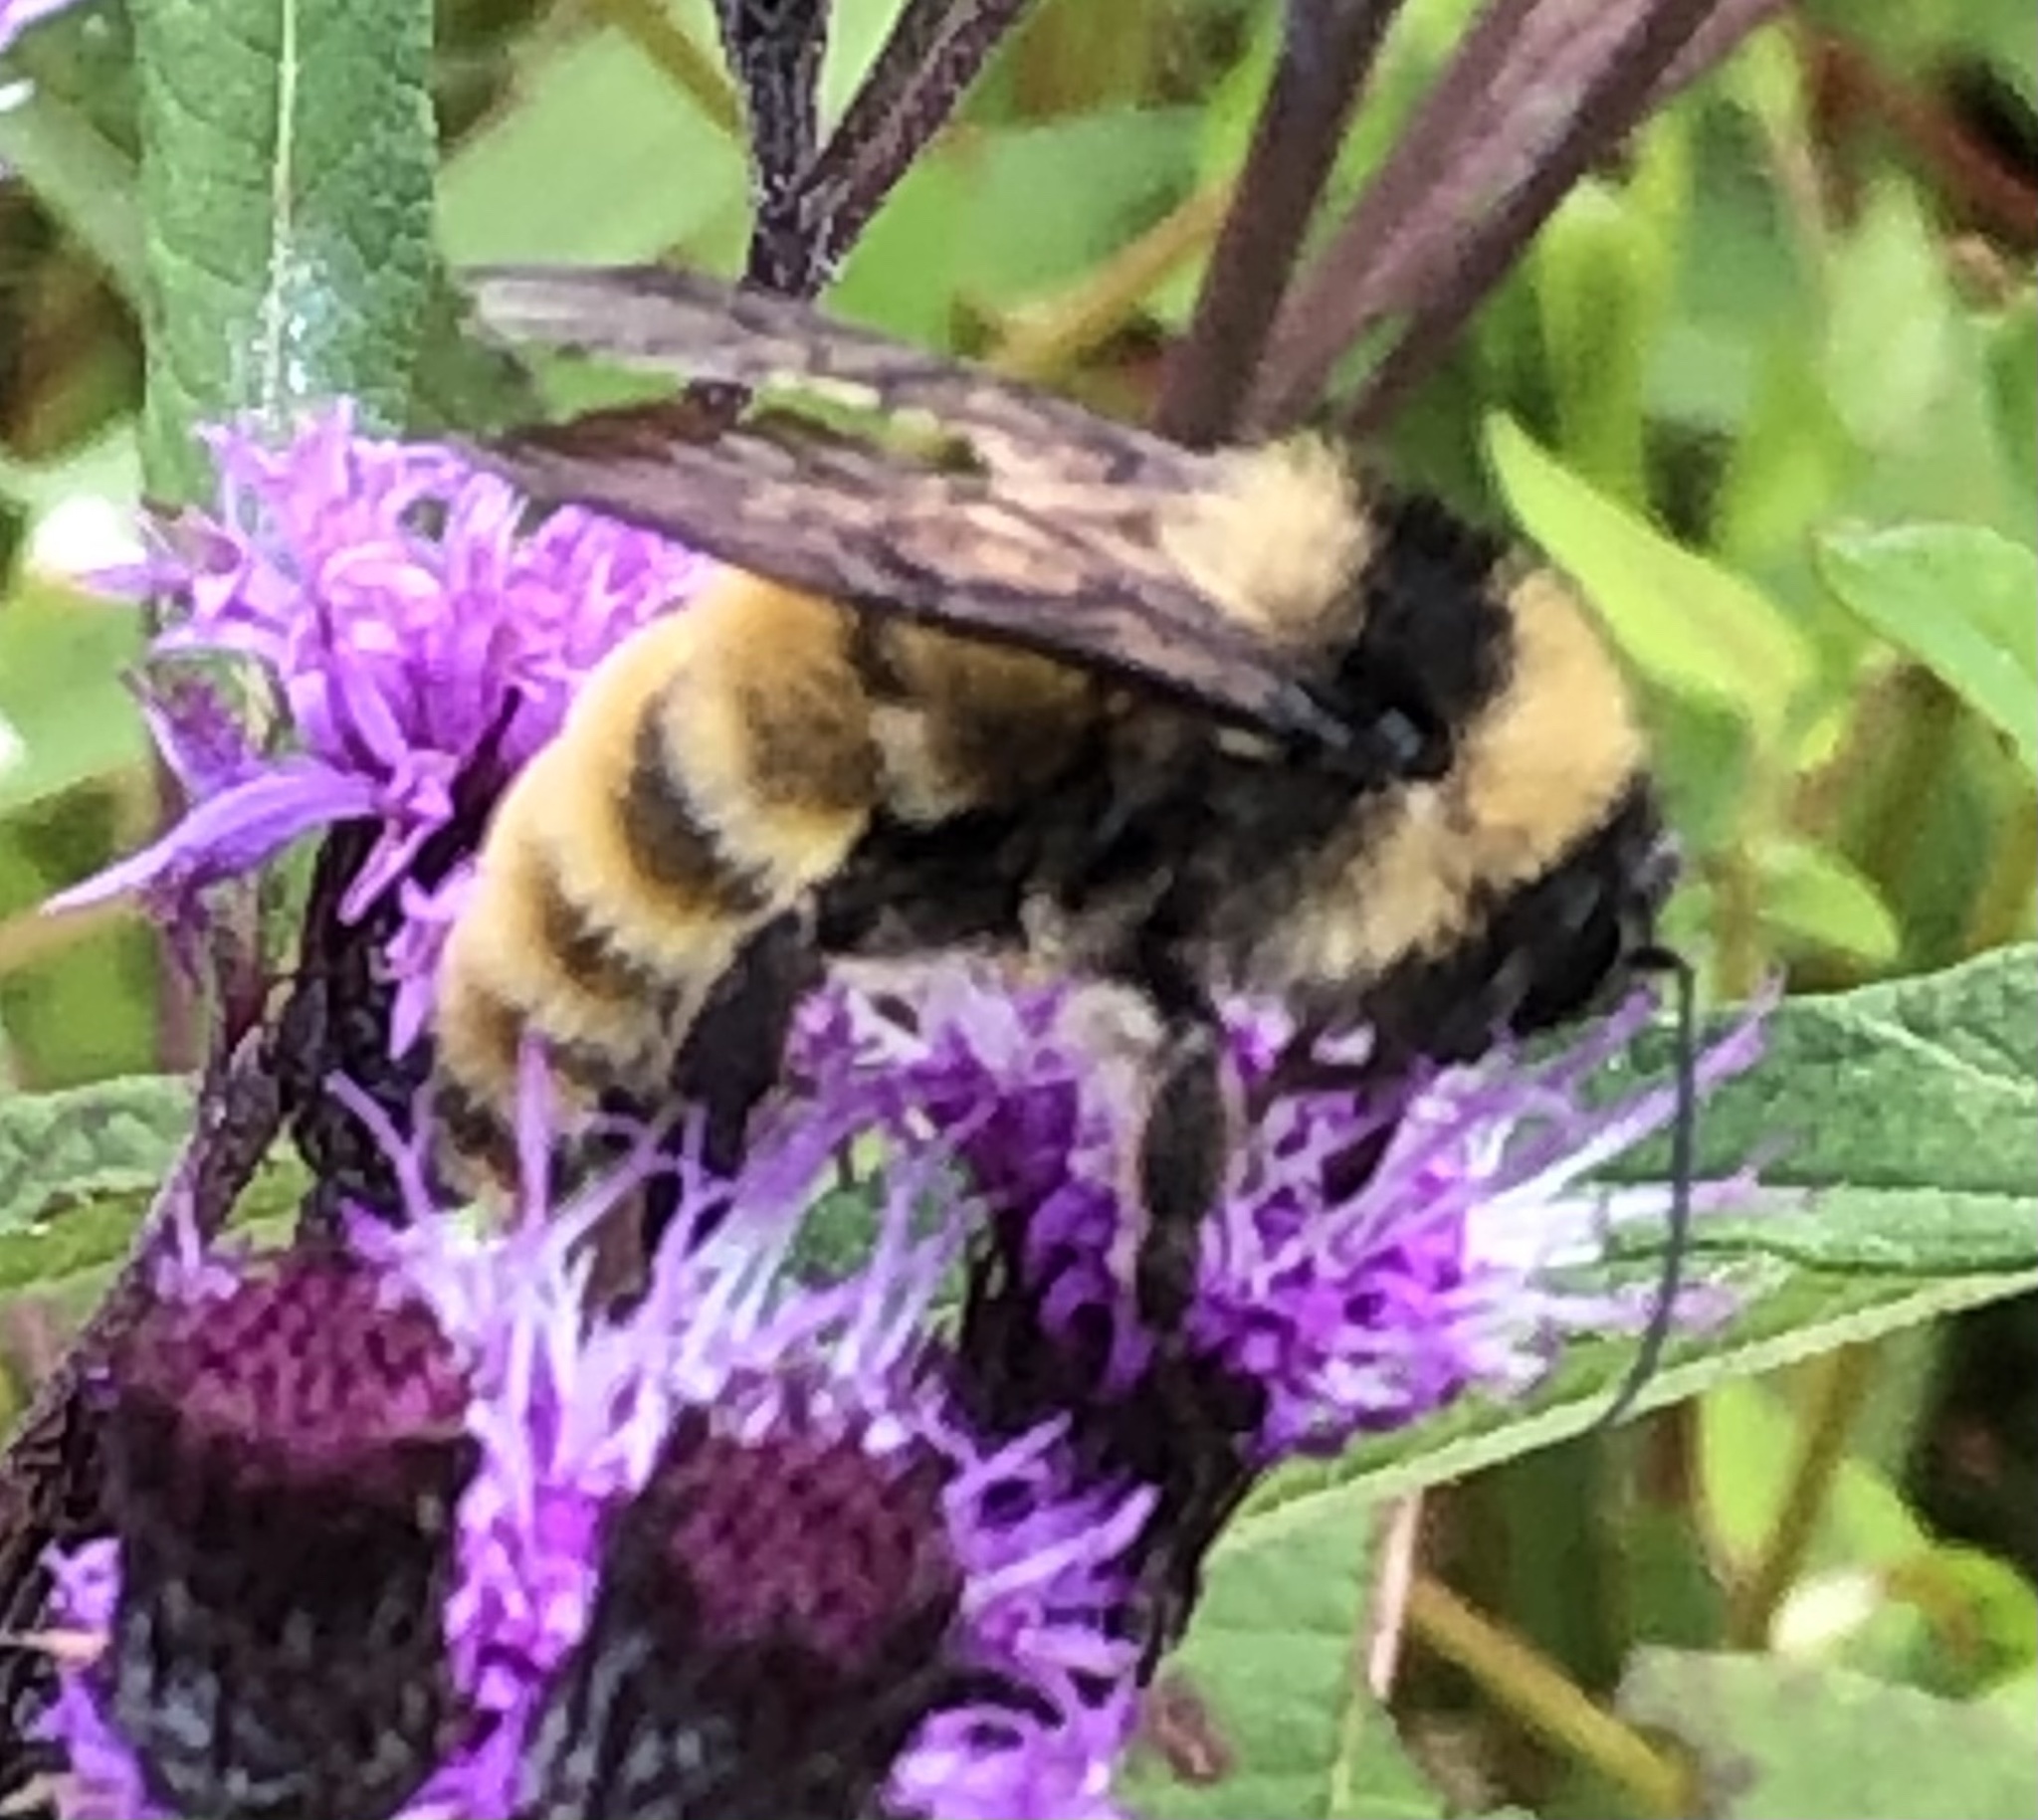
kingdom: Animalia
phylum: Arthropoda
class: Insecta
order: Hymenoptera
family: Apidae
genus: Bombus
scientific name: Bombus pensylvanicus
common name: Bumble bee
